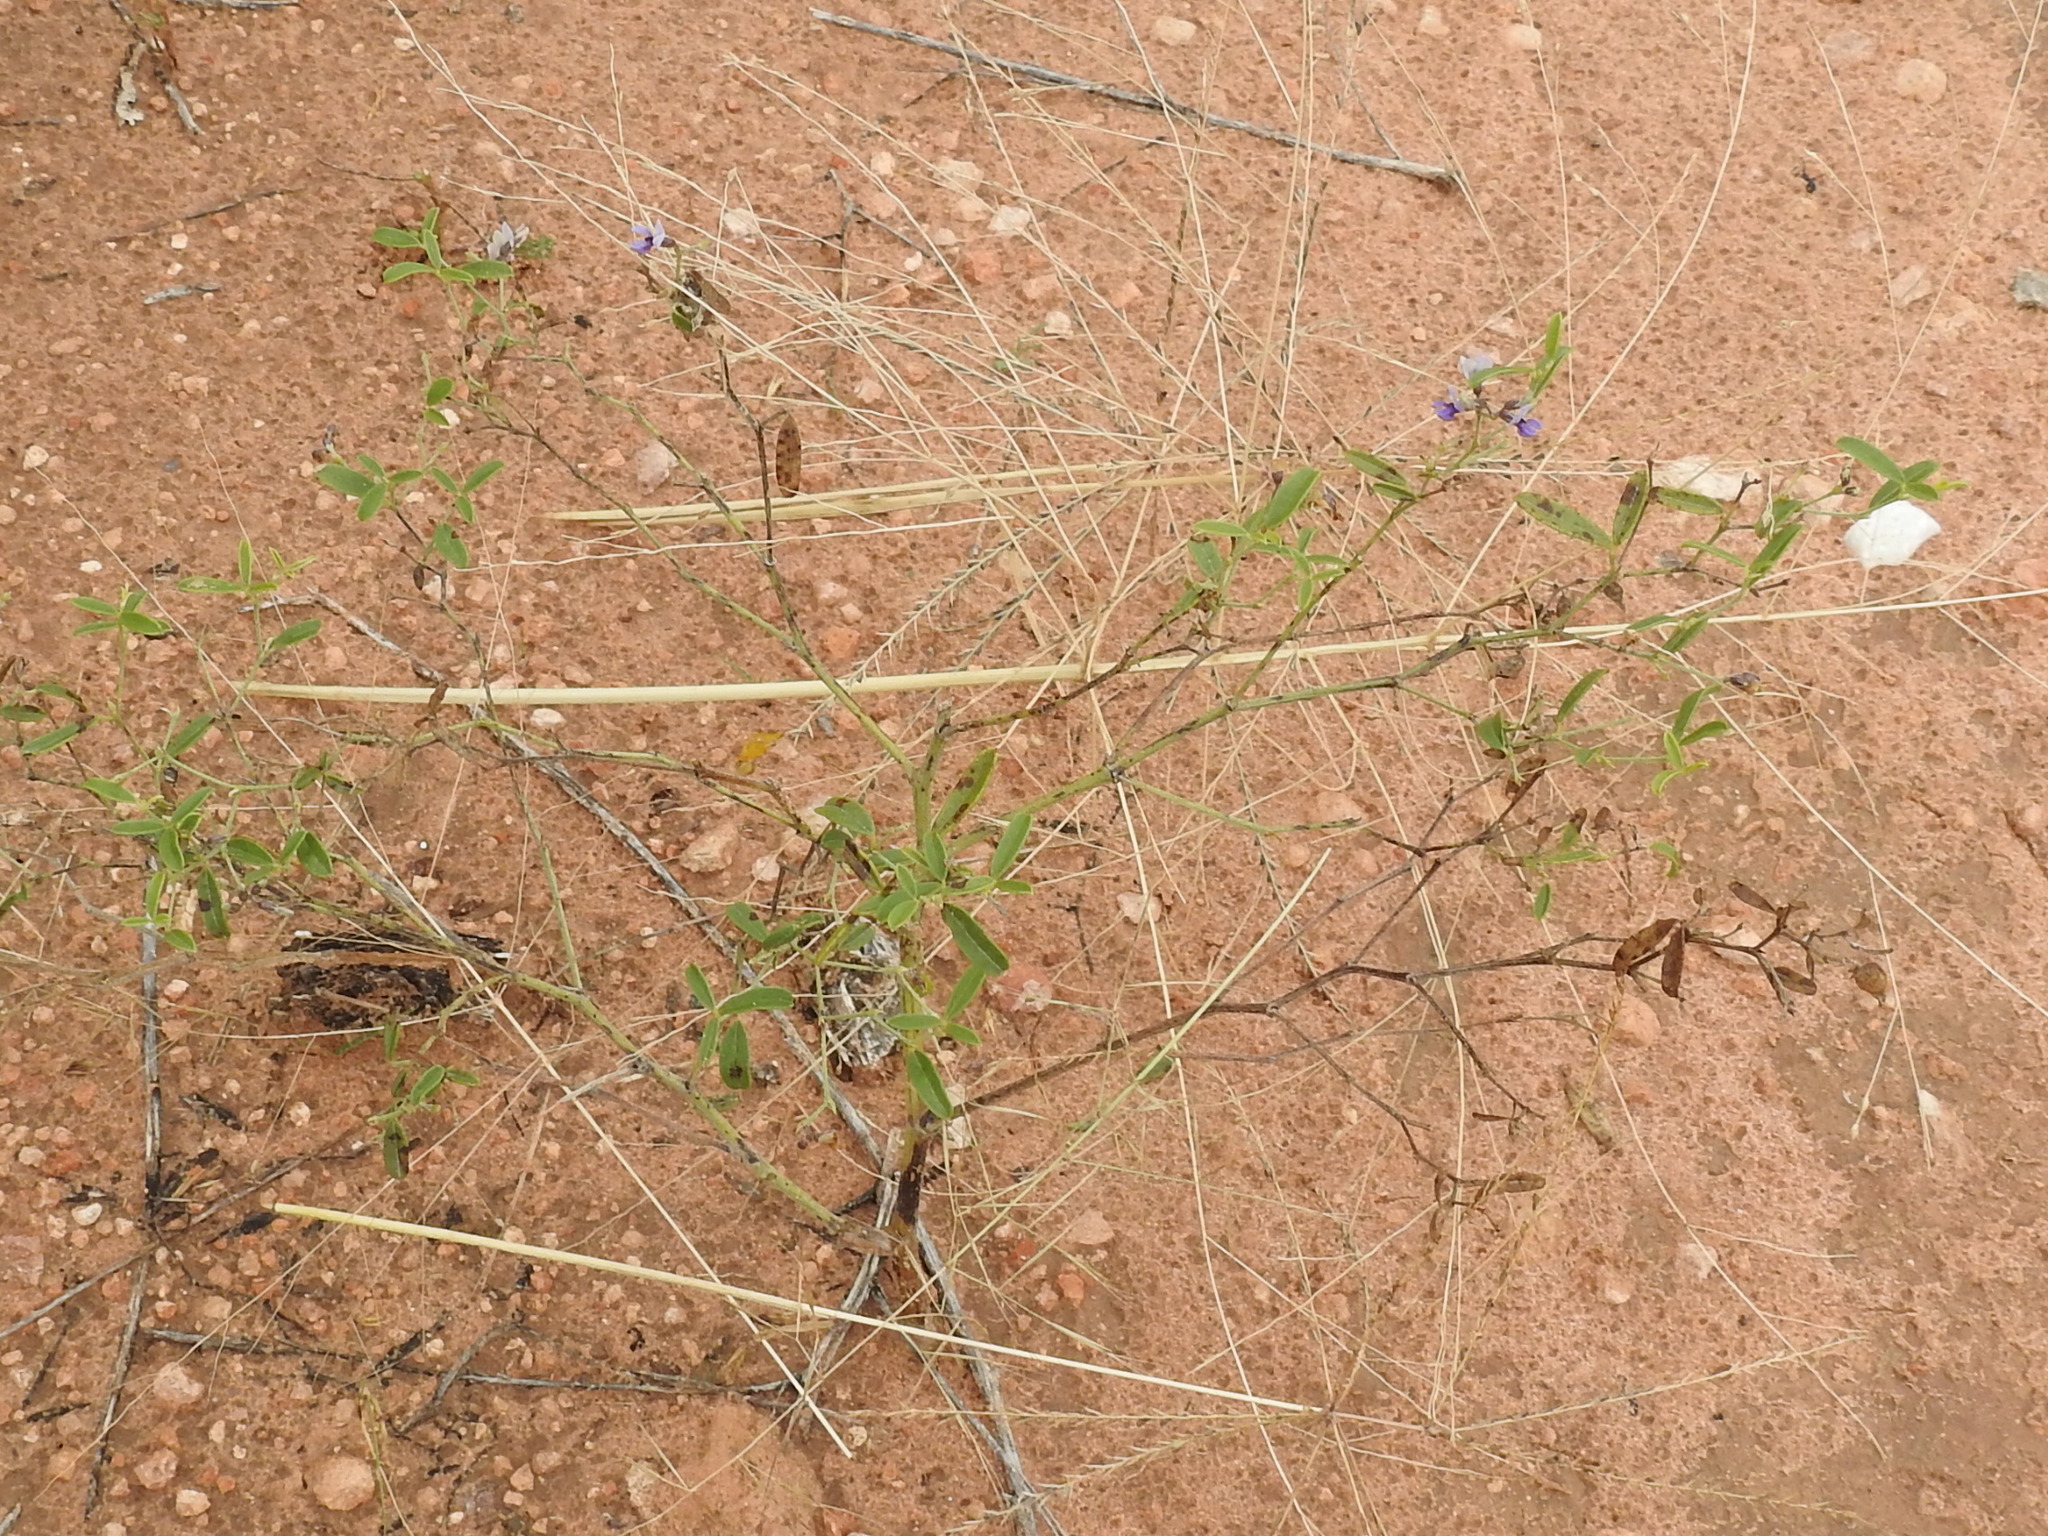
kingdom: Plantae
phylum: Tracheophyta
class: Magnoliopsida
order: Fabales
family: Fabaceae
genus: Pediomelum
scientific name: Pediomelum tenuiflorum
